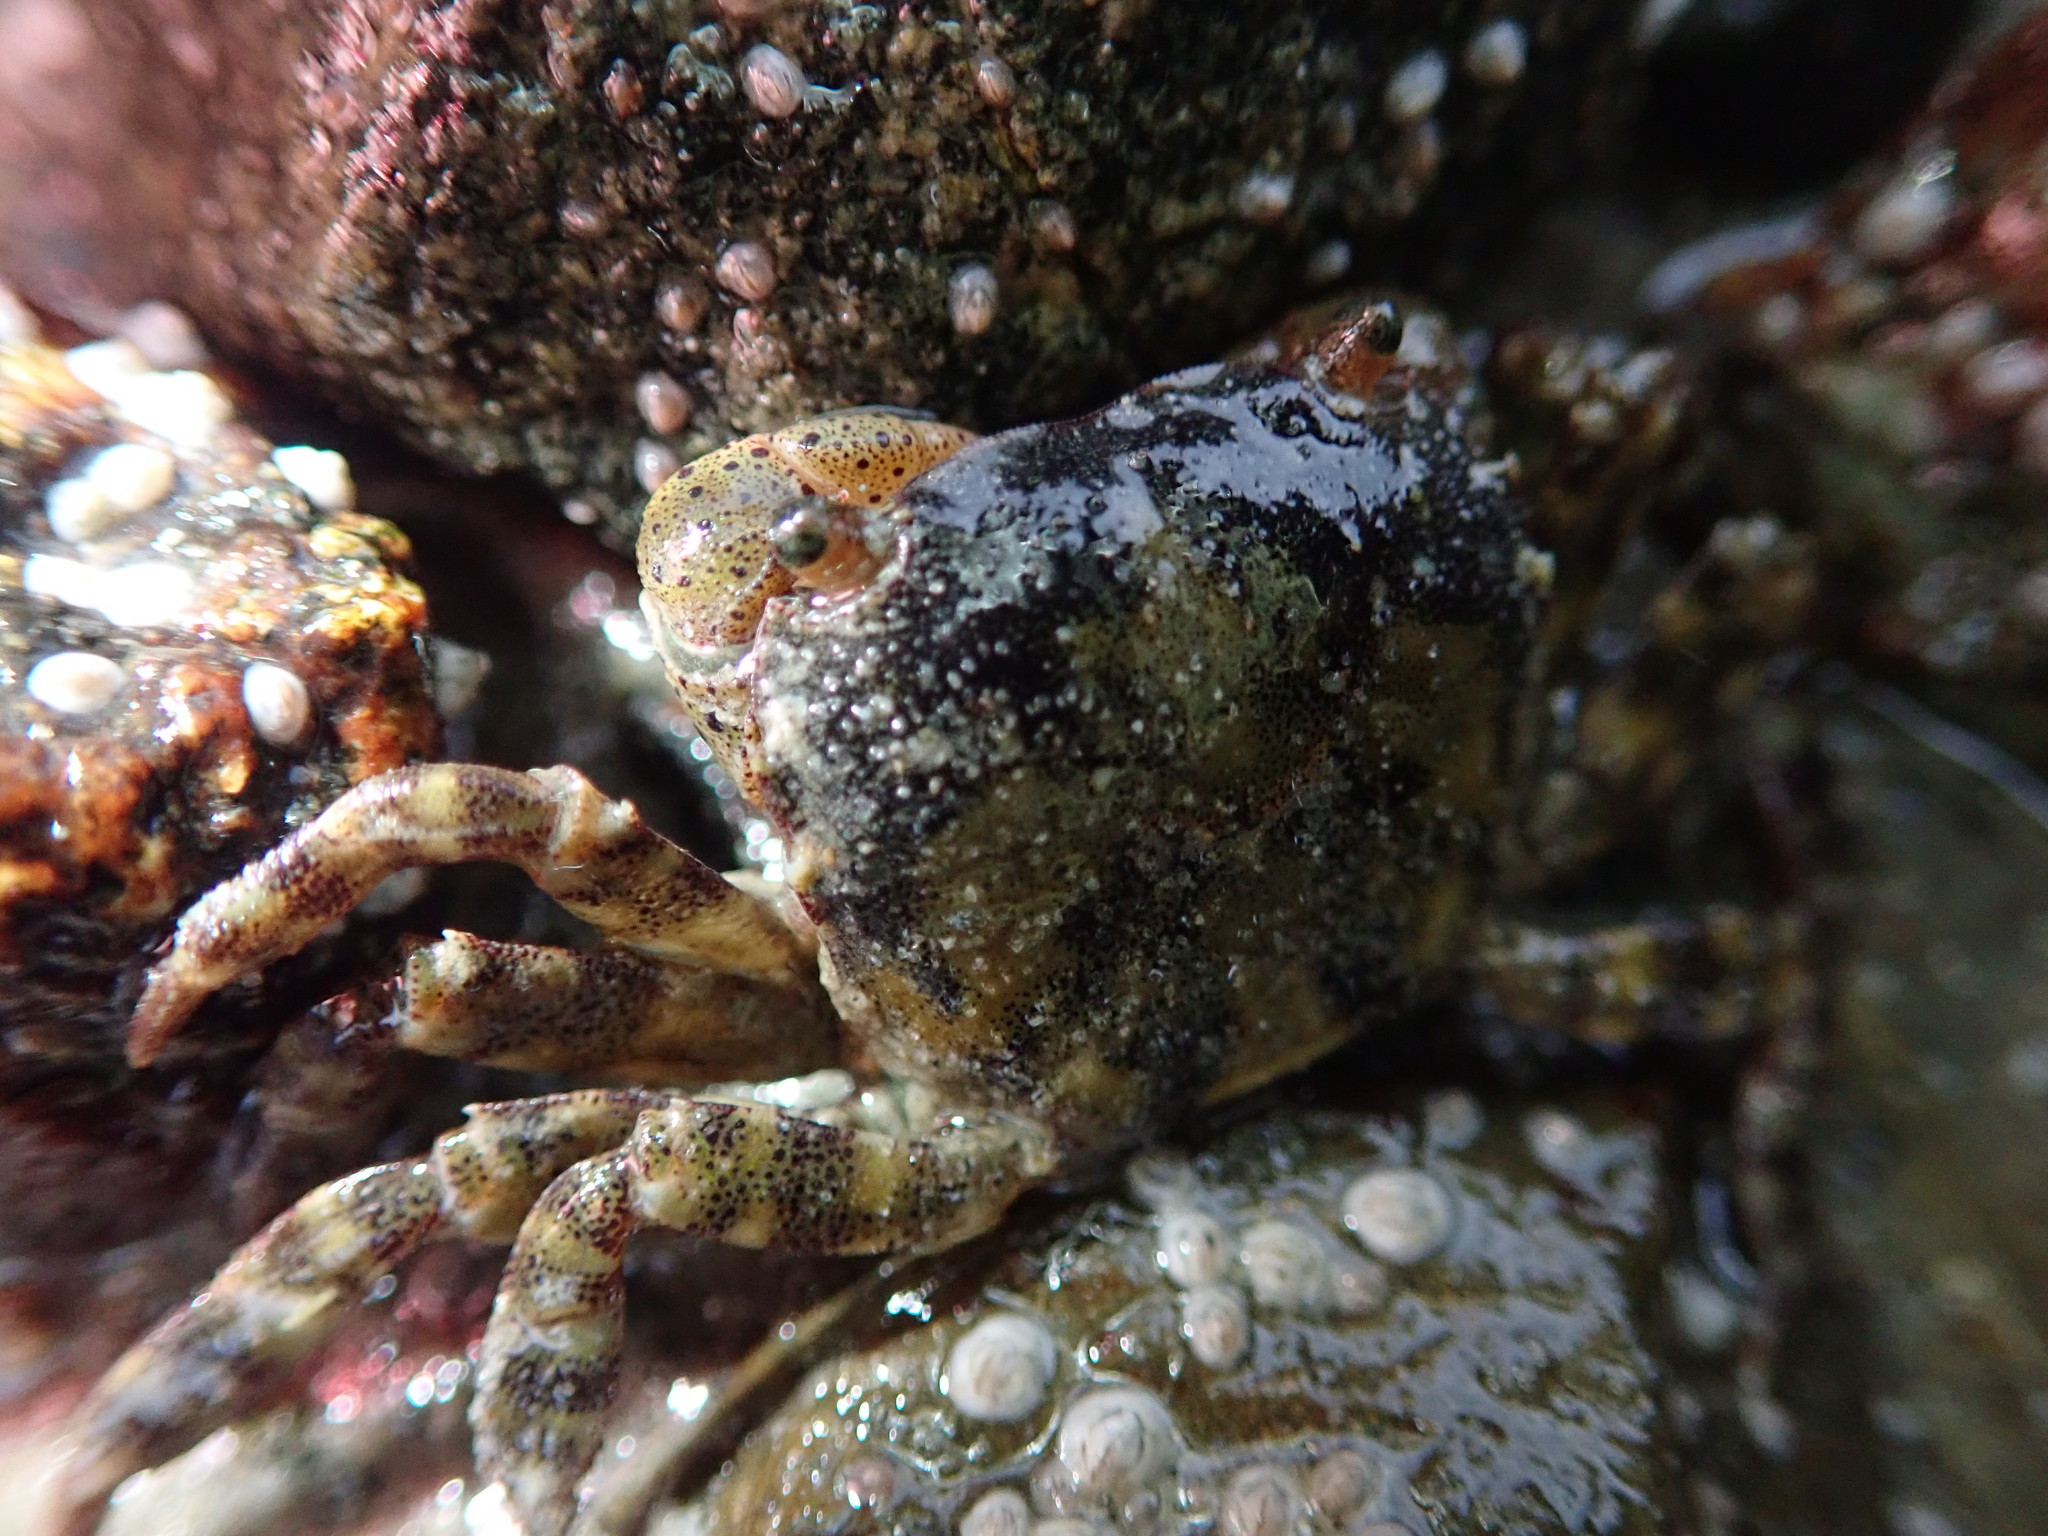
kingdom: Animalia
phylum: Arthropoda
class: Malacostraca
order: Decapoda
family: Varunidae
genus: Hemigrapsus
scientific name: Hemigrapsus sanguineus
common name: Asian shore crab
